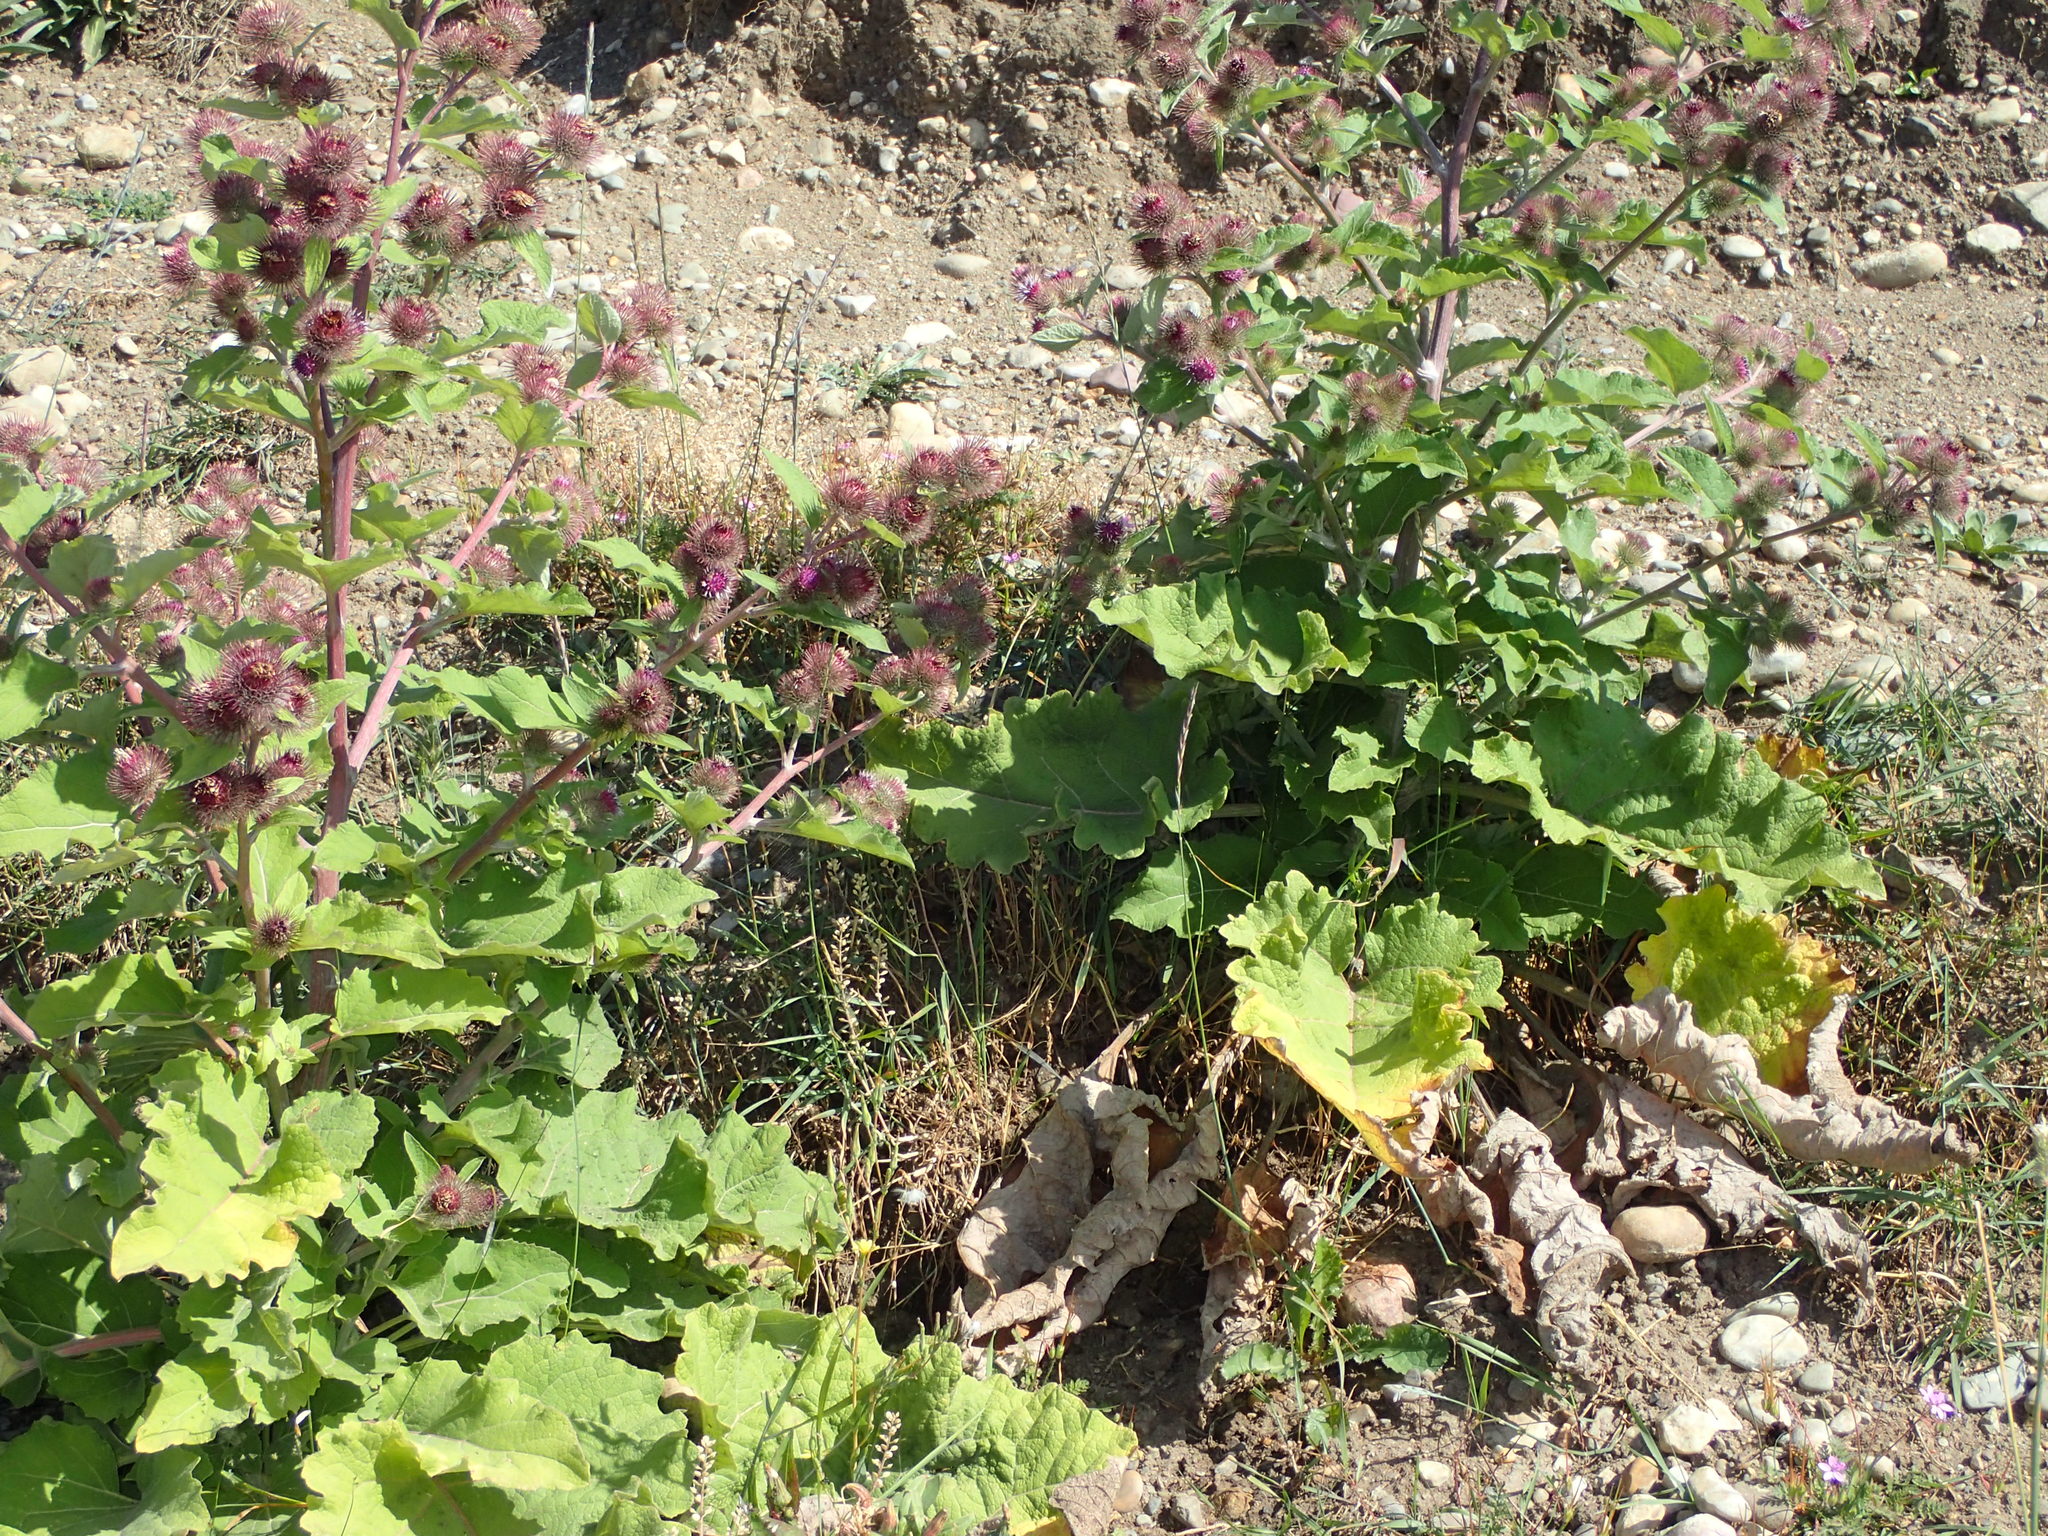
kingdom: Plantae
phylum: Tracheophyta
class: Magnoliopsida
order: Asterales
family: Asteraceae
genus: Arctium
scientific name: Arctium minus
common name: Lesser burdock
